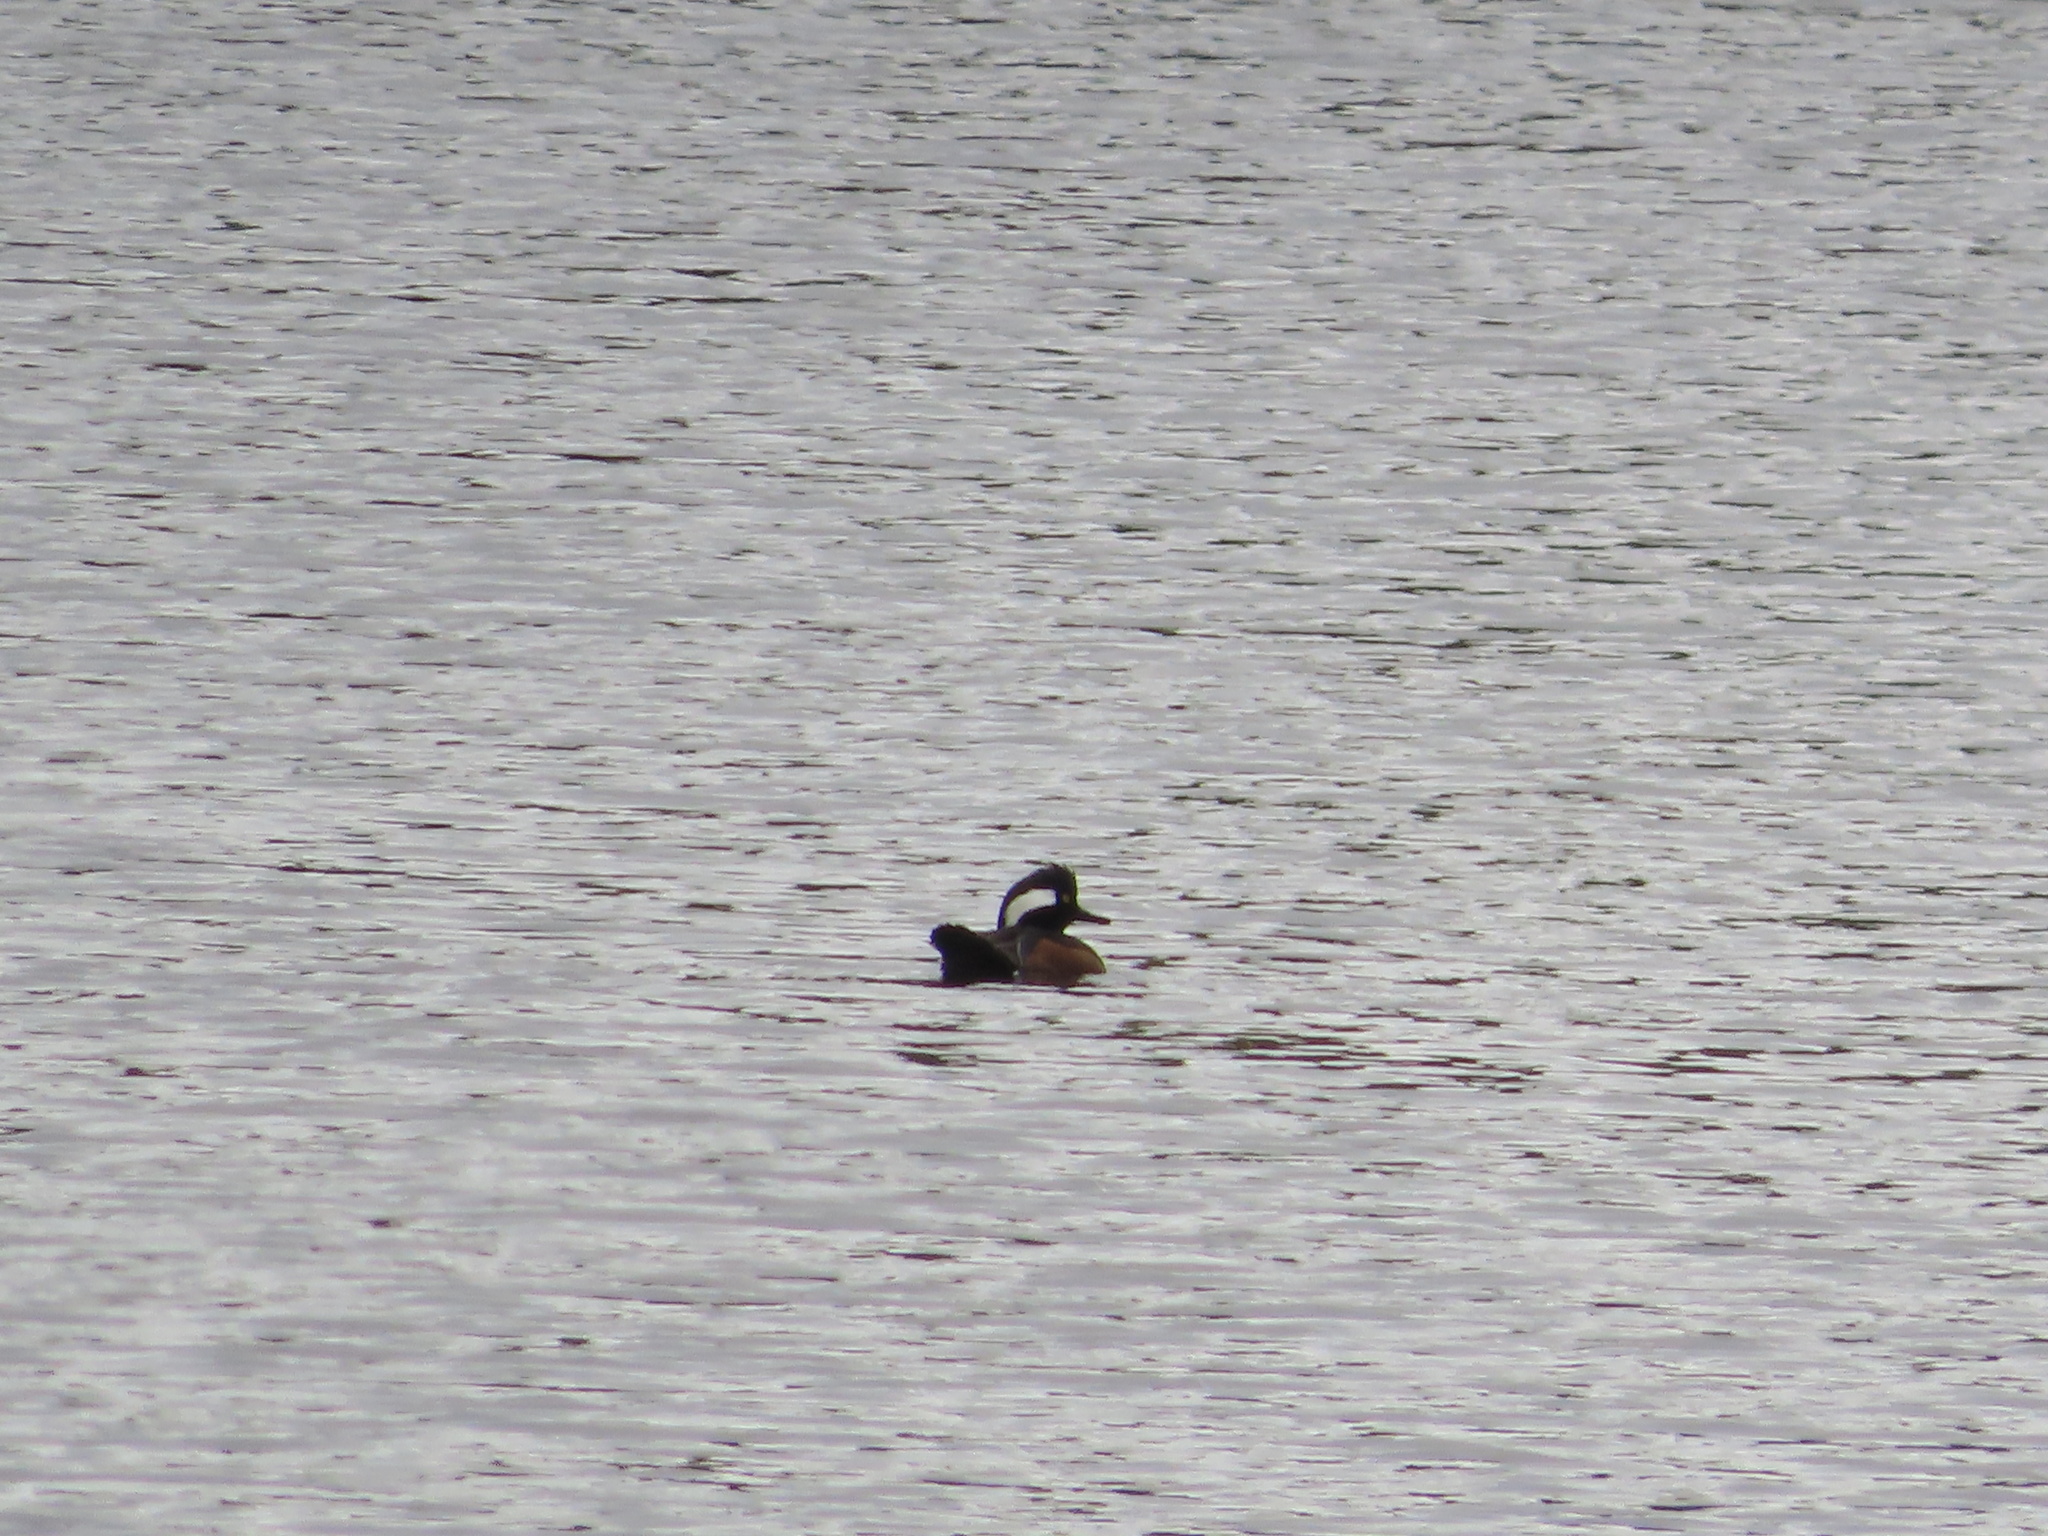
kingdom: Animalia
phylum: Chordata
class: Aves
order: Anseriformes
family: Anatidae
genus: Lophodytes
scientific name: Lophodytes cucullatus
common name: Hooded merganser
